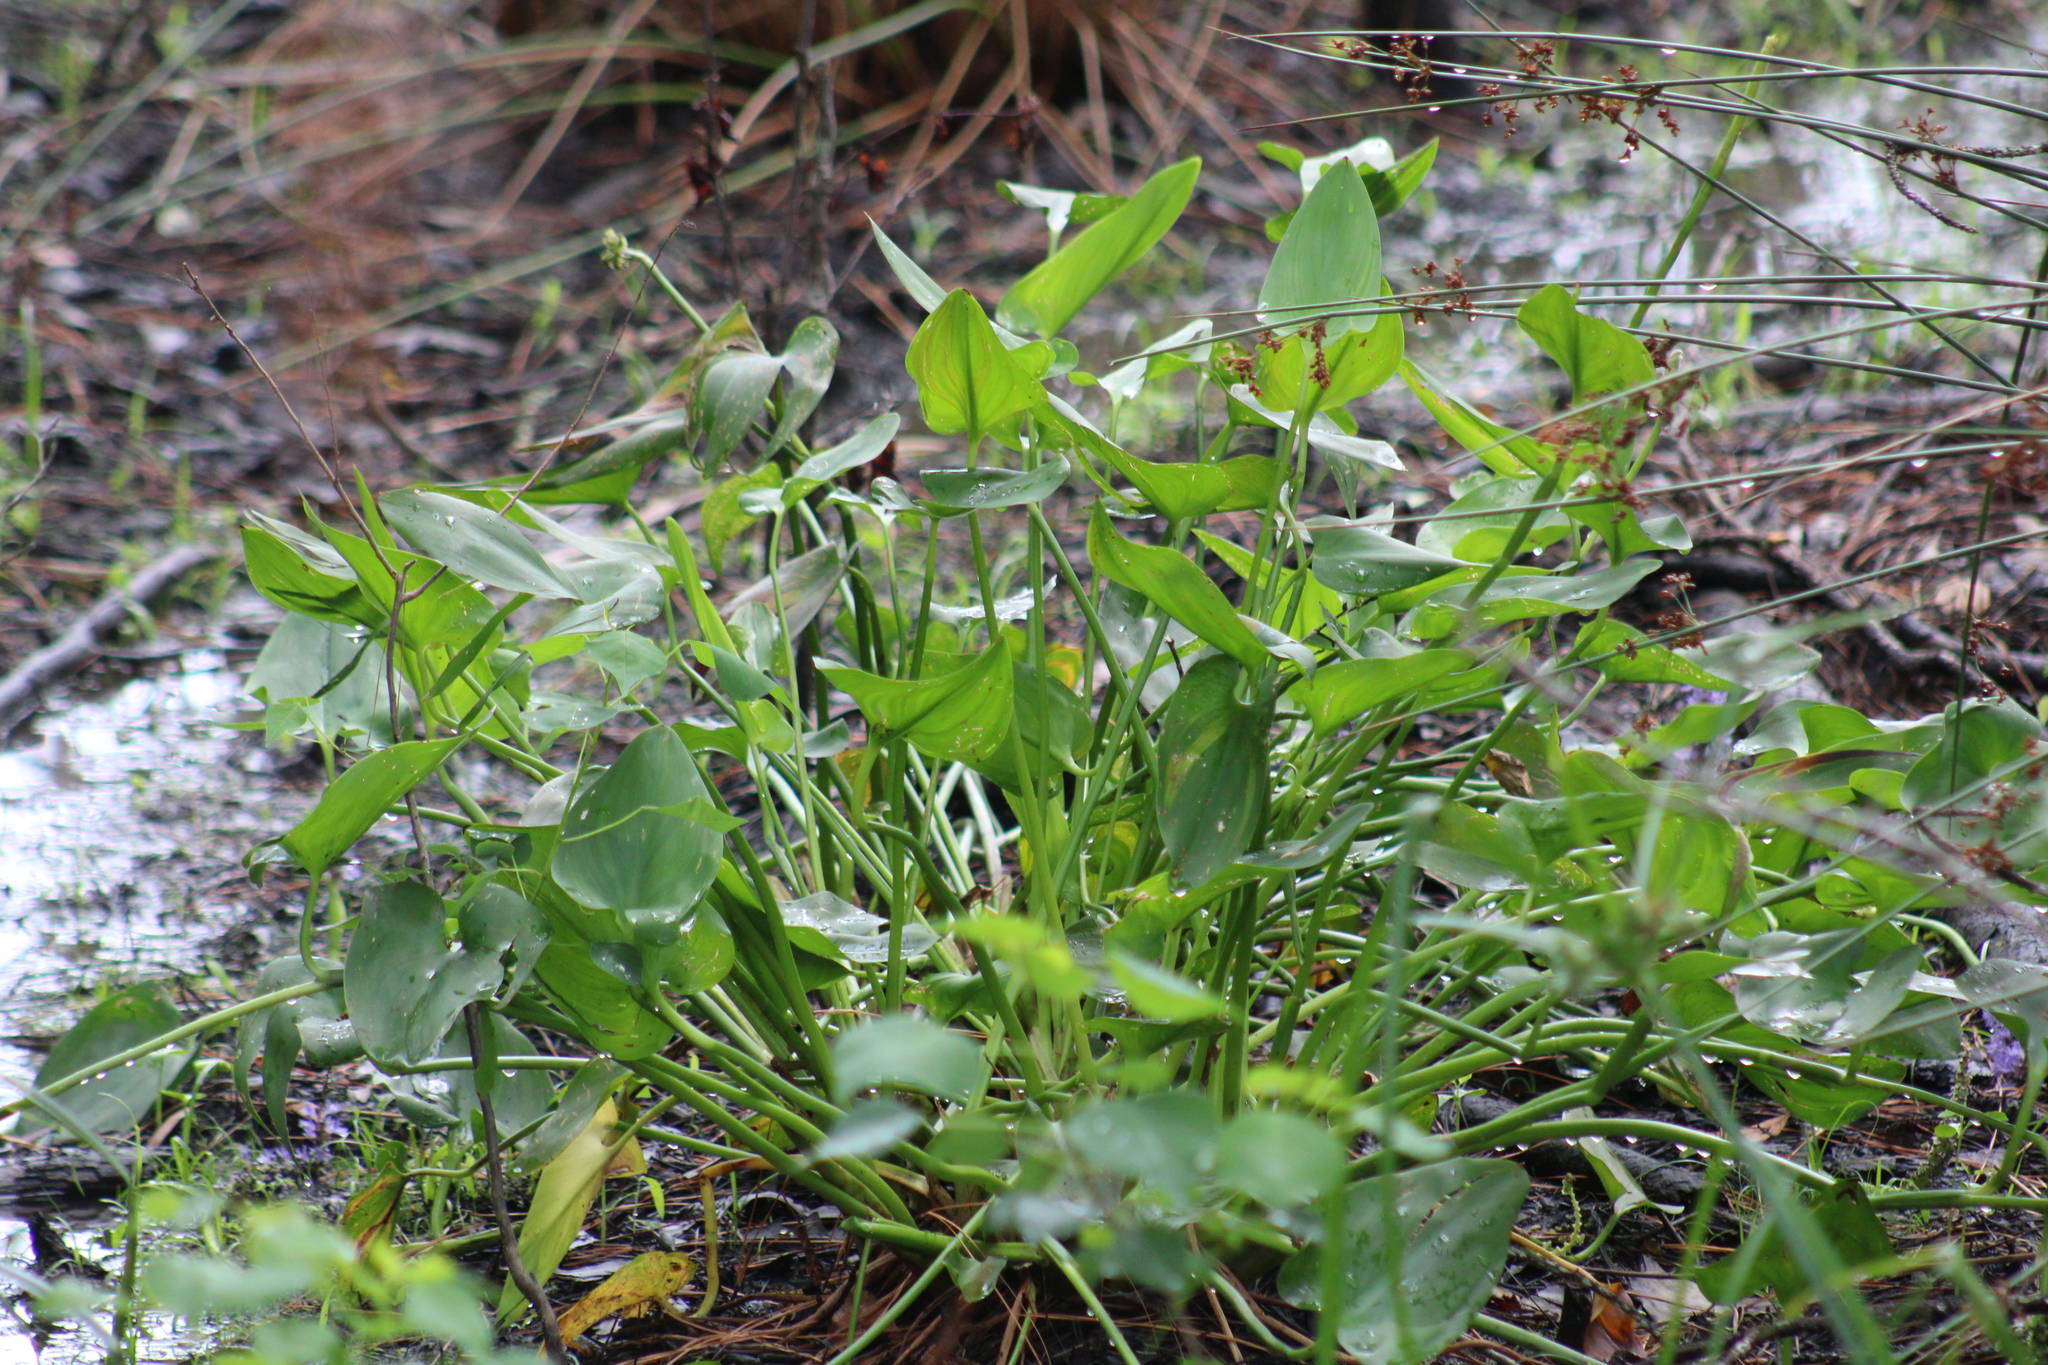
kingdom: Plantae
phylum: Tracheophyta
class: Liliopsida
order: Commelinales
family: Pontederiaceae
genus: Pontederia
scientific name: Pontederia cordata
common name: Pickerelweed
